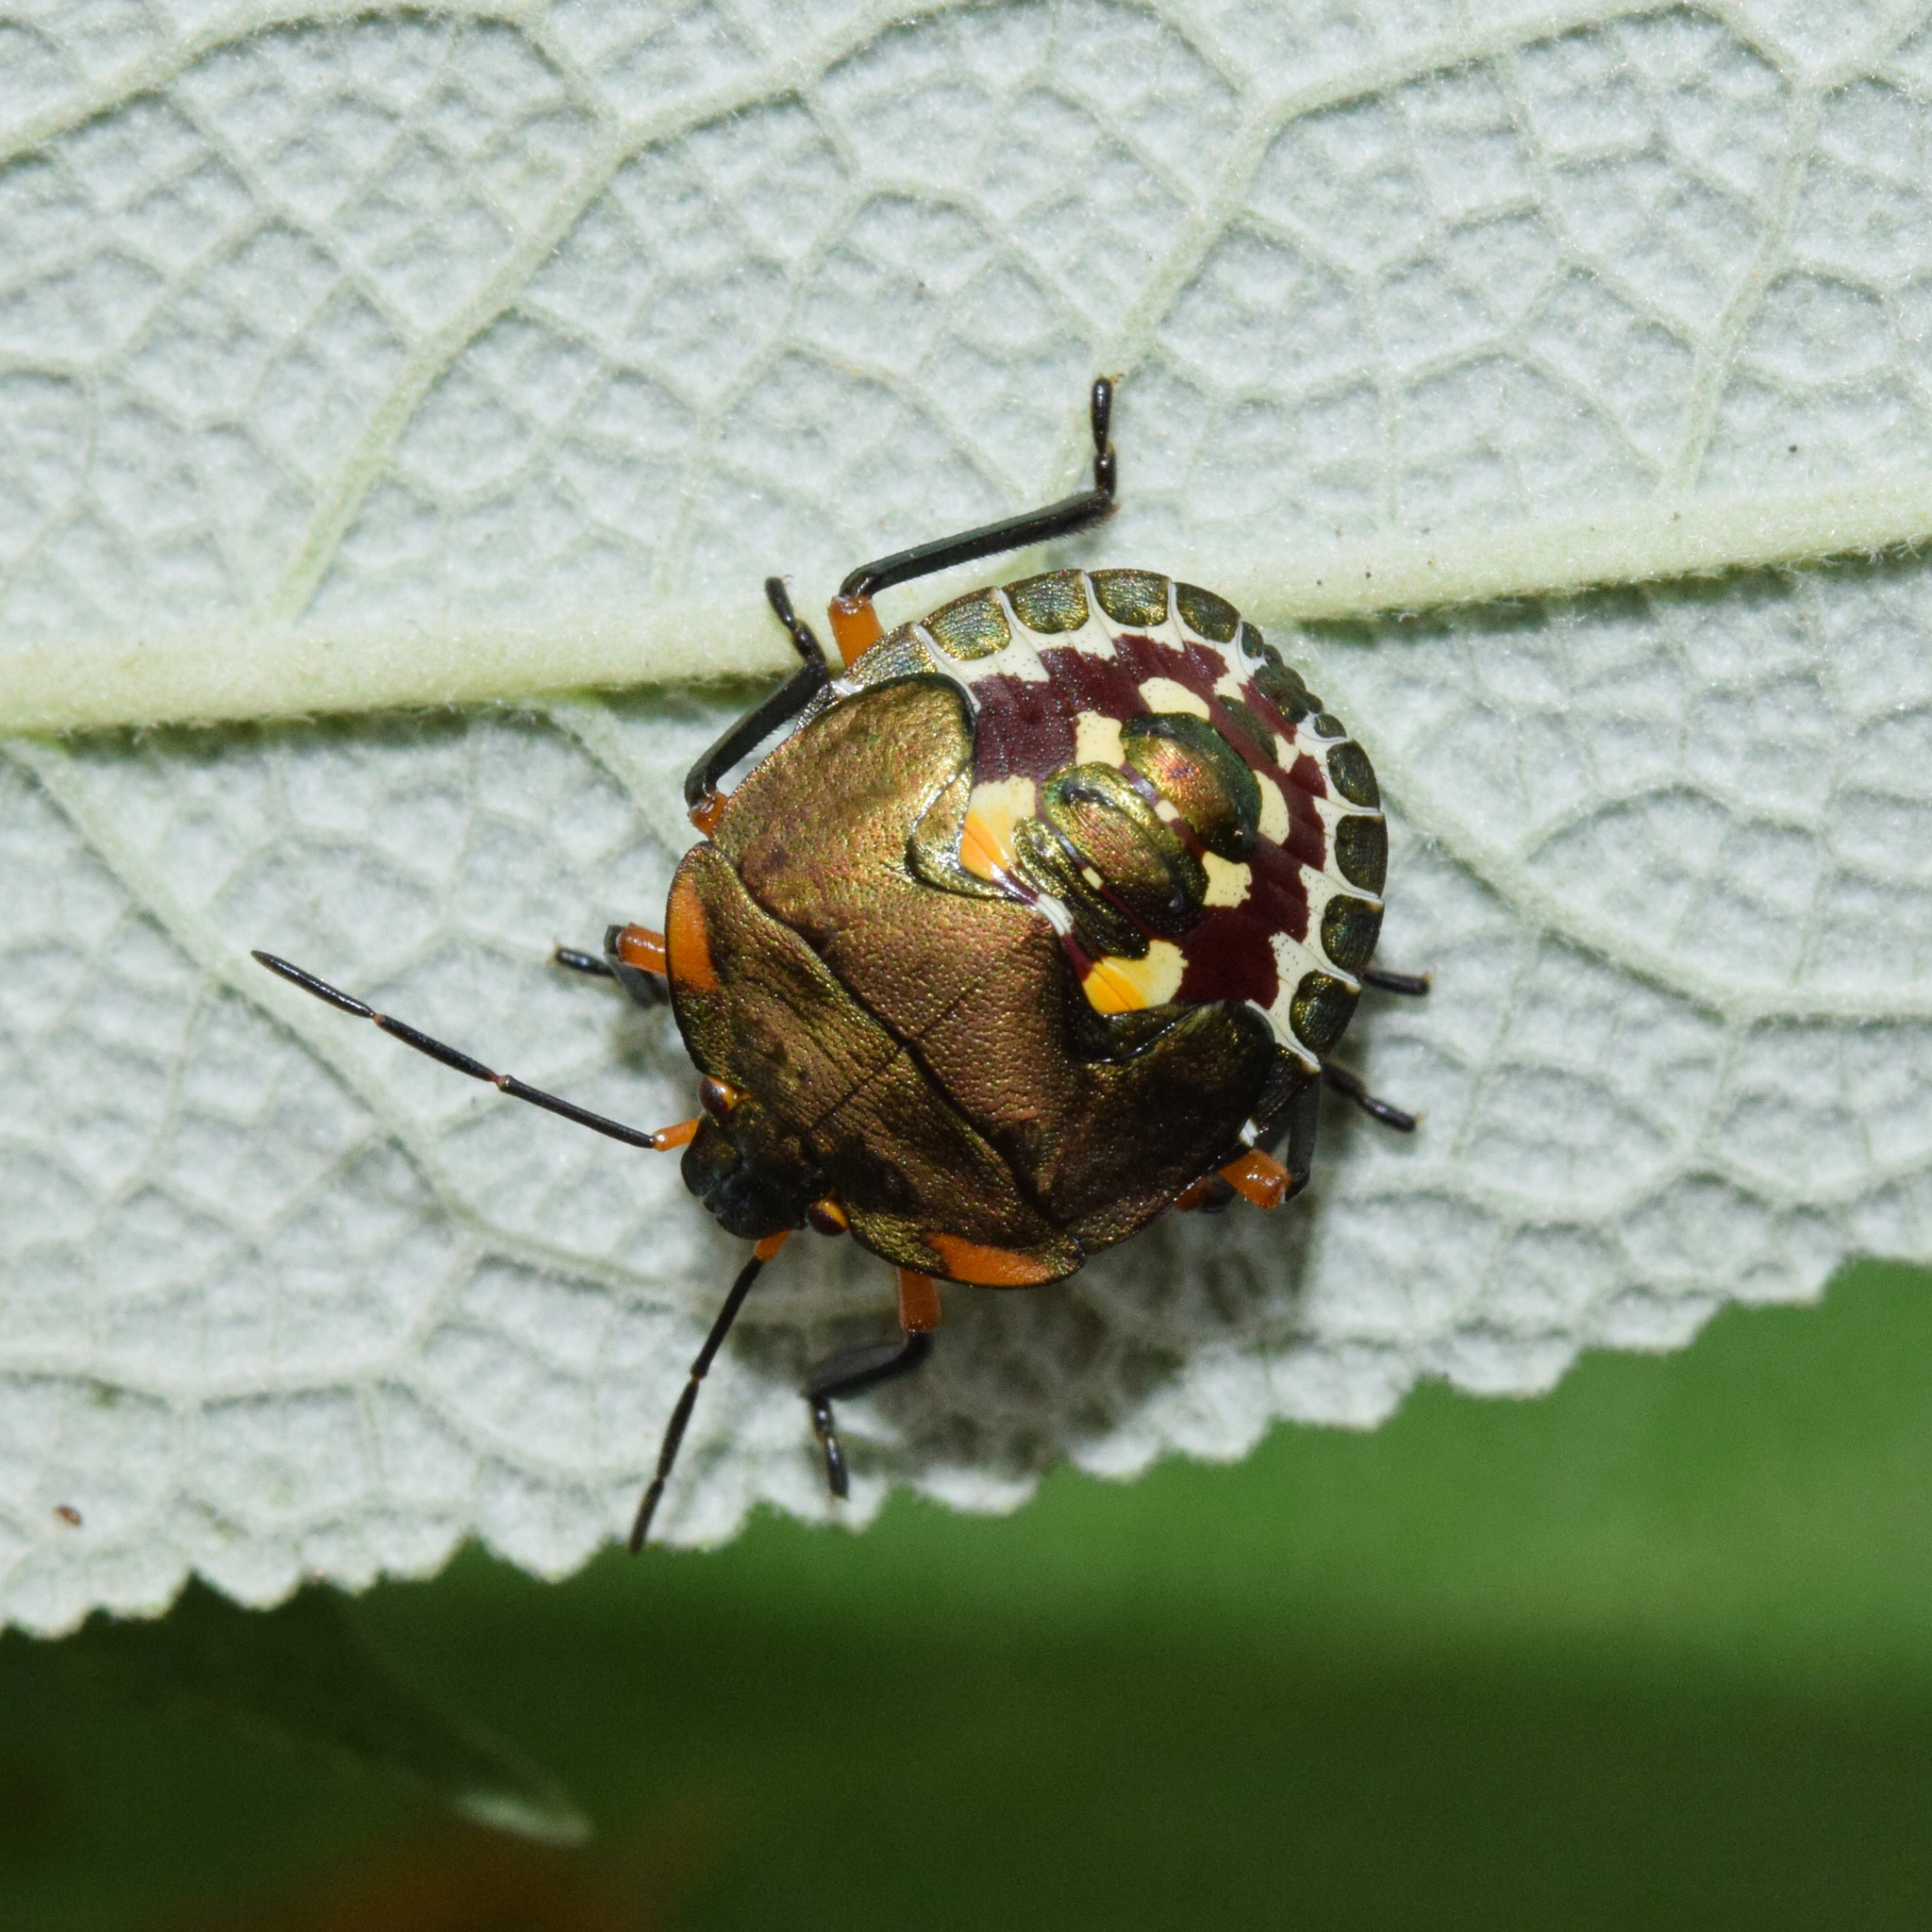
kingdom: Animalia
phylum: Arthropoda
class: Insecta
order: Hemiptera
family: Pentatomidae
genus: Caura
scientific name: Caura rufiventris
